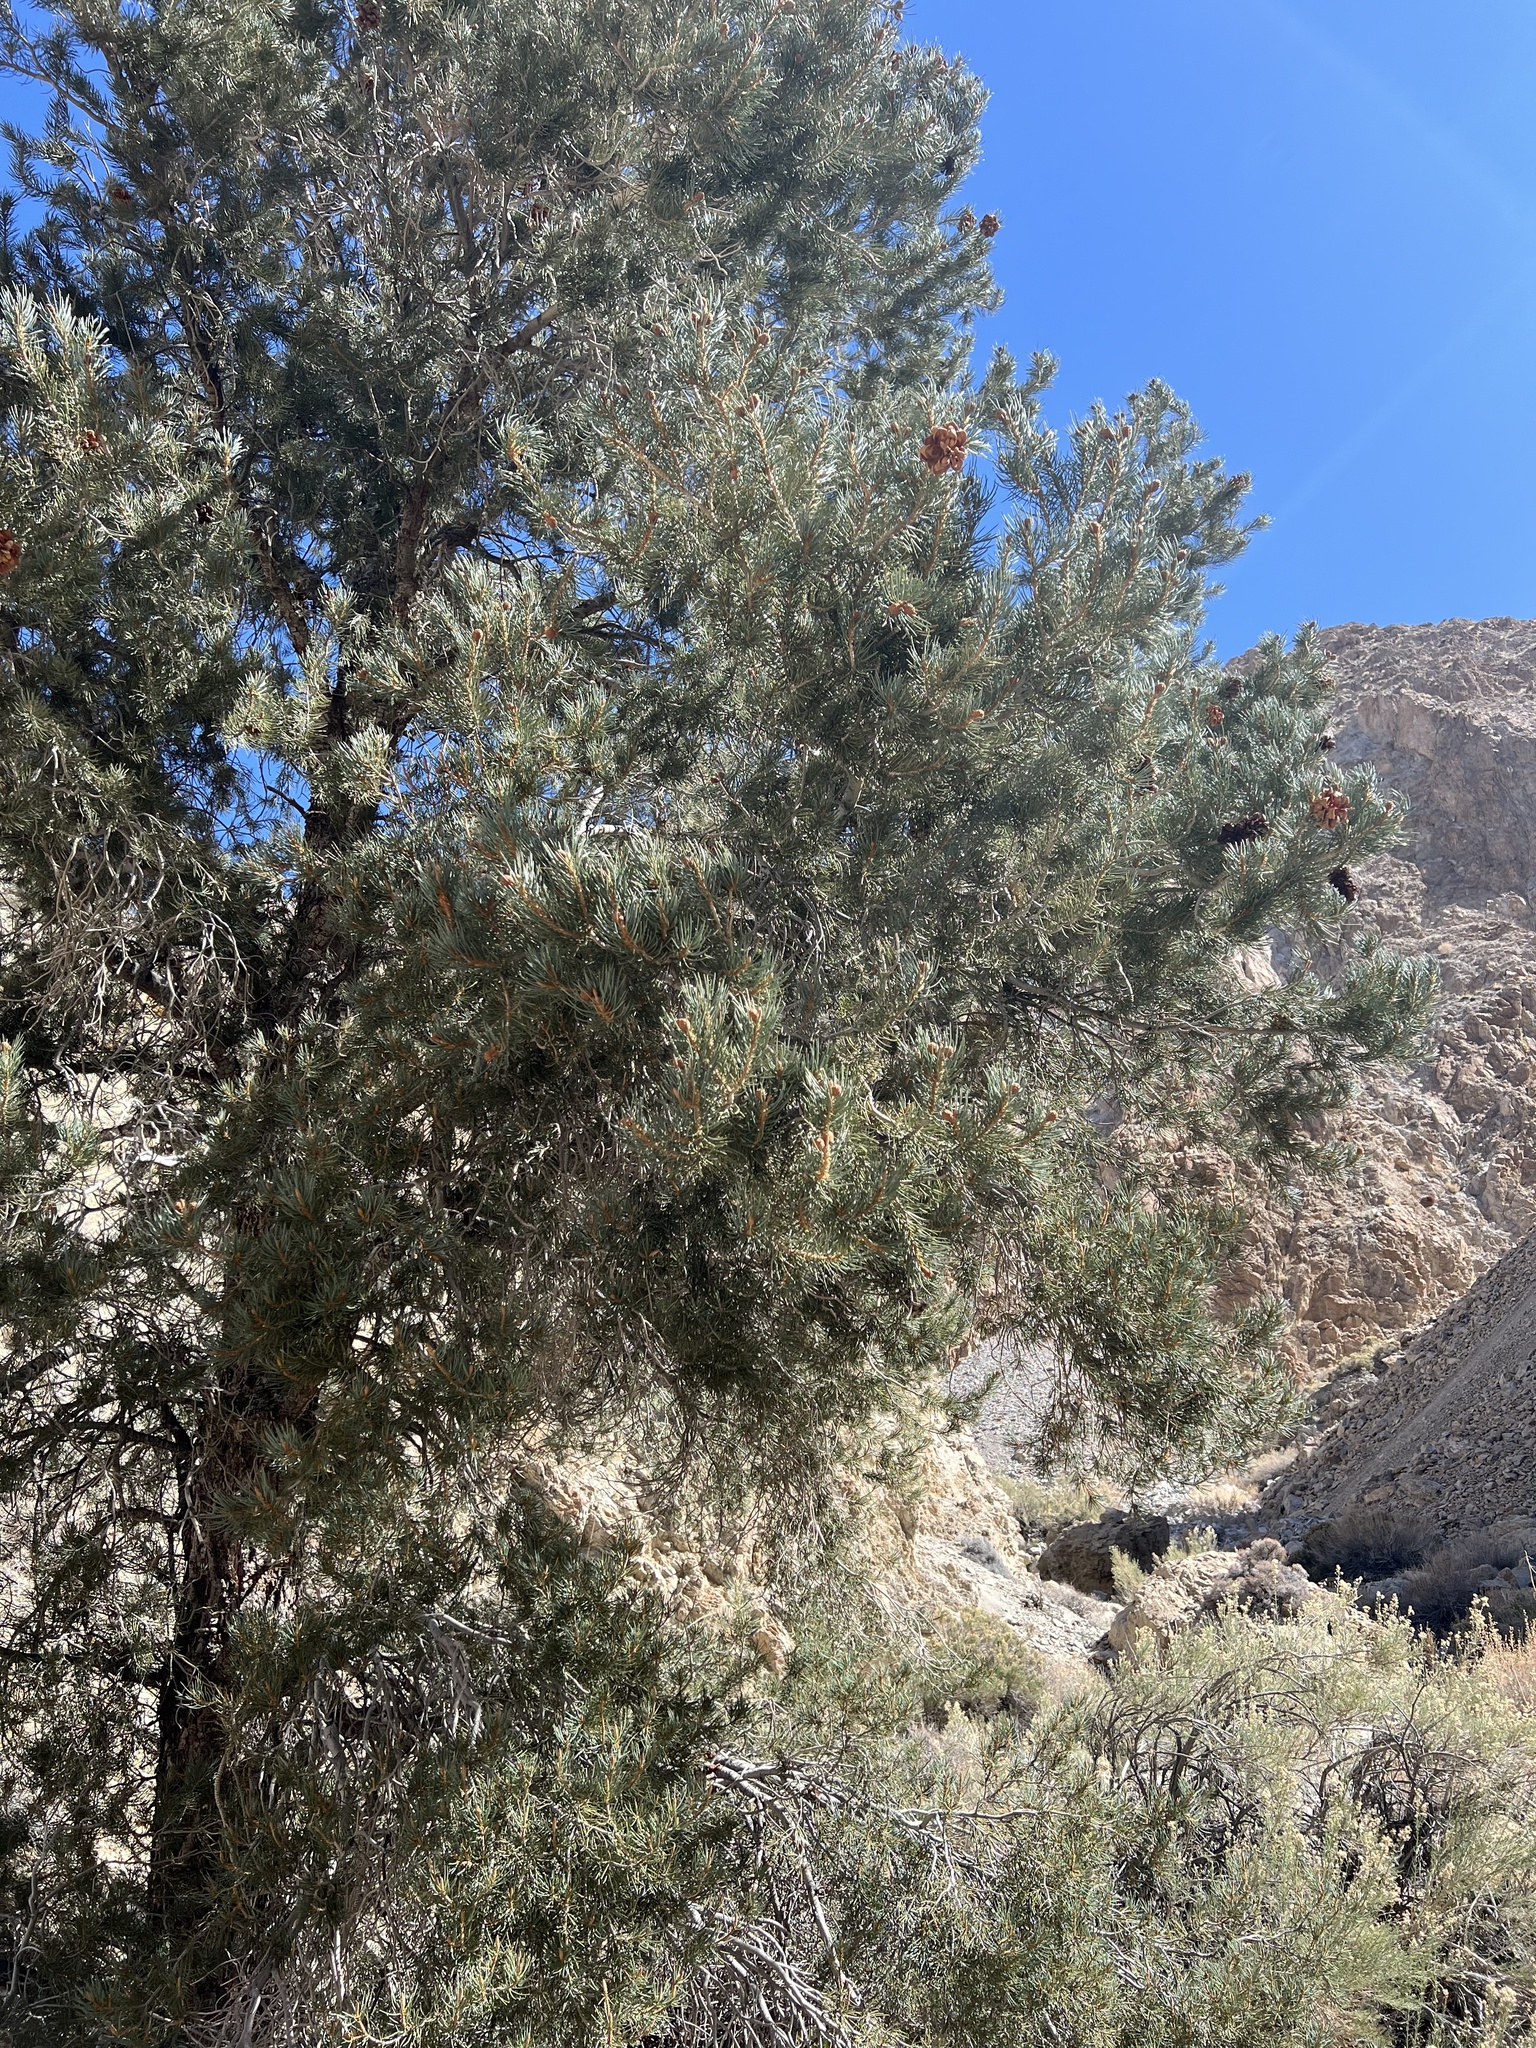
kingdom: Plantae
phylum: Tracheophyta
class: Pinopsida
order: Pinales
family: Pinaceae
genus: Pinus
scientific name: Pinus monophylla
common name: One-leaved nut pine
